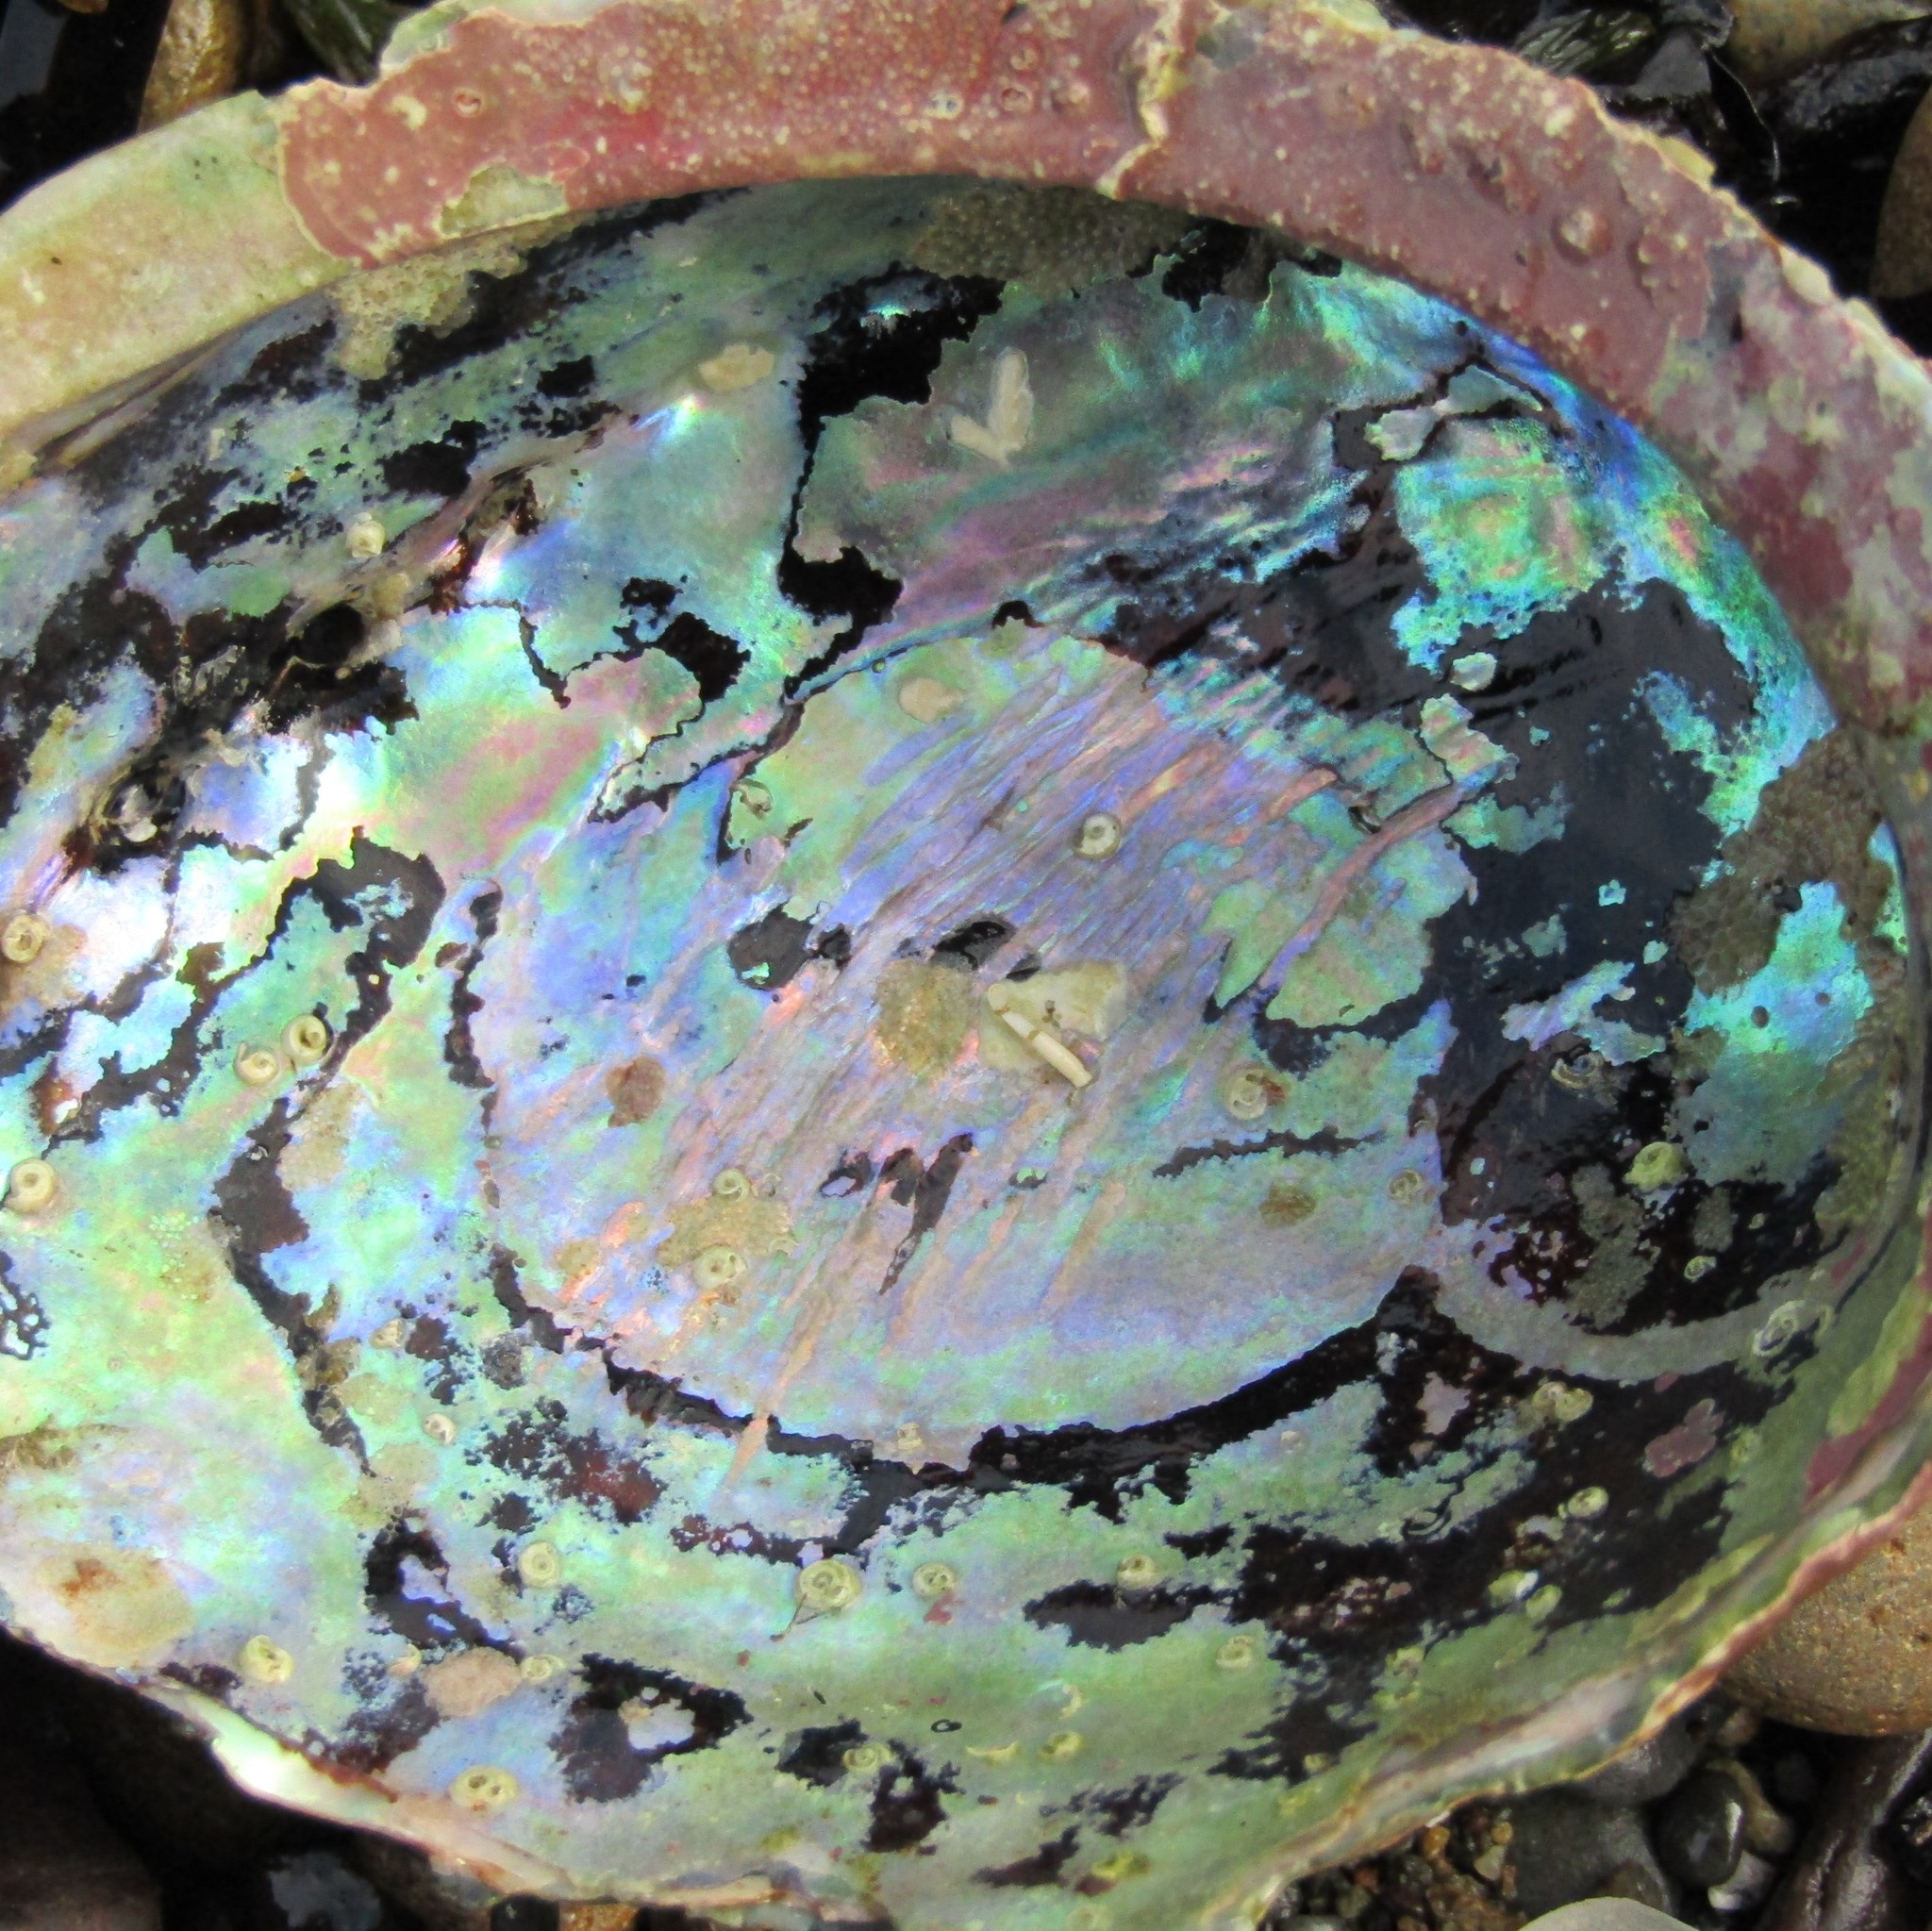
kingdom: Animalia
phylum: Mollusca
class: Gastropoda
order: Lepetellida
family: Haliotidae
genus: Haliotis
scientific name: Haliotis iris
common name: Abalone
